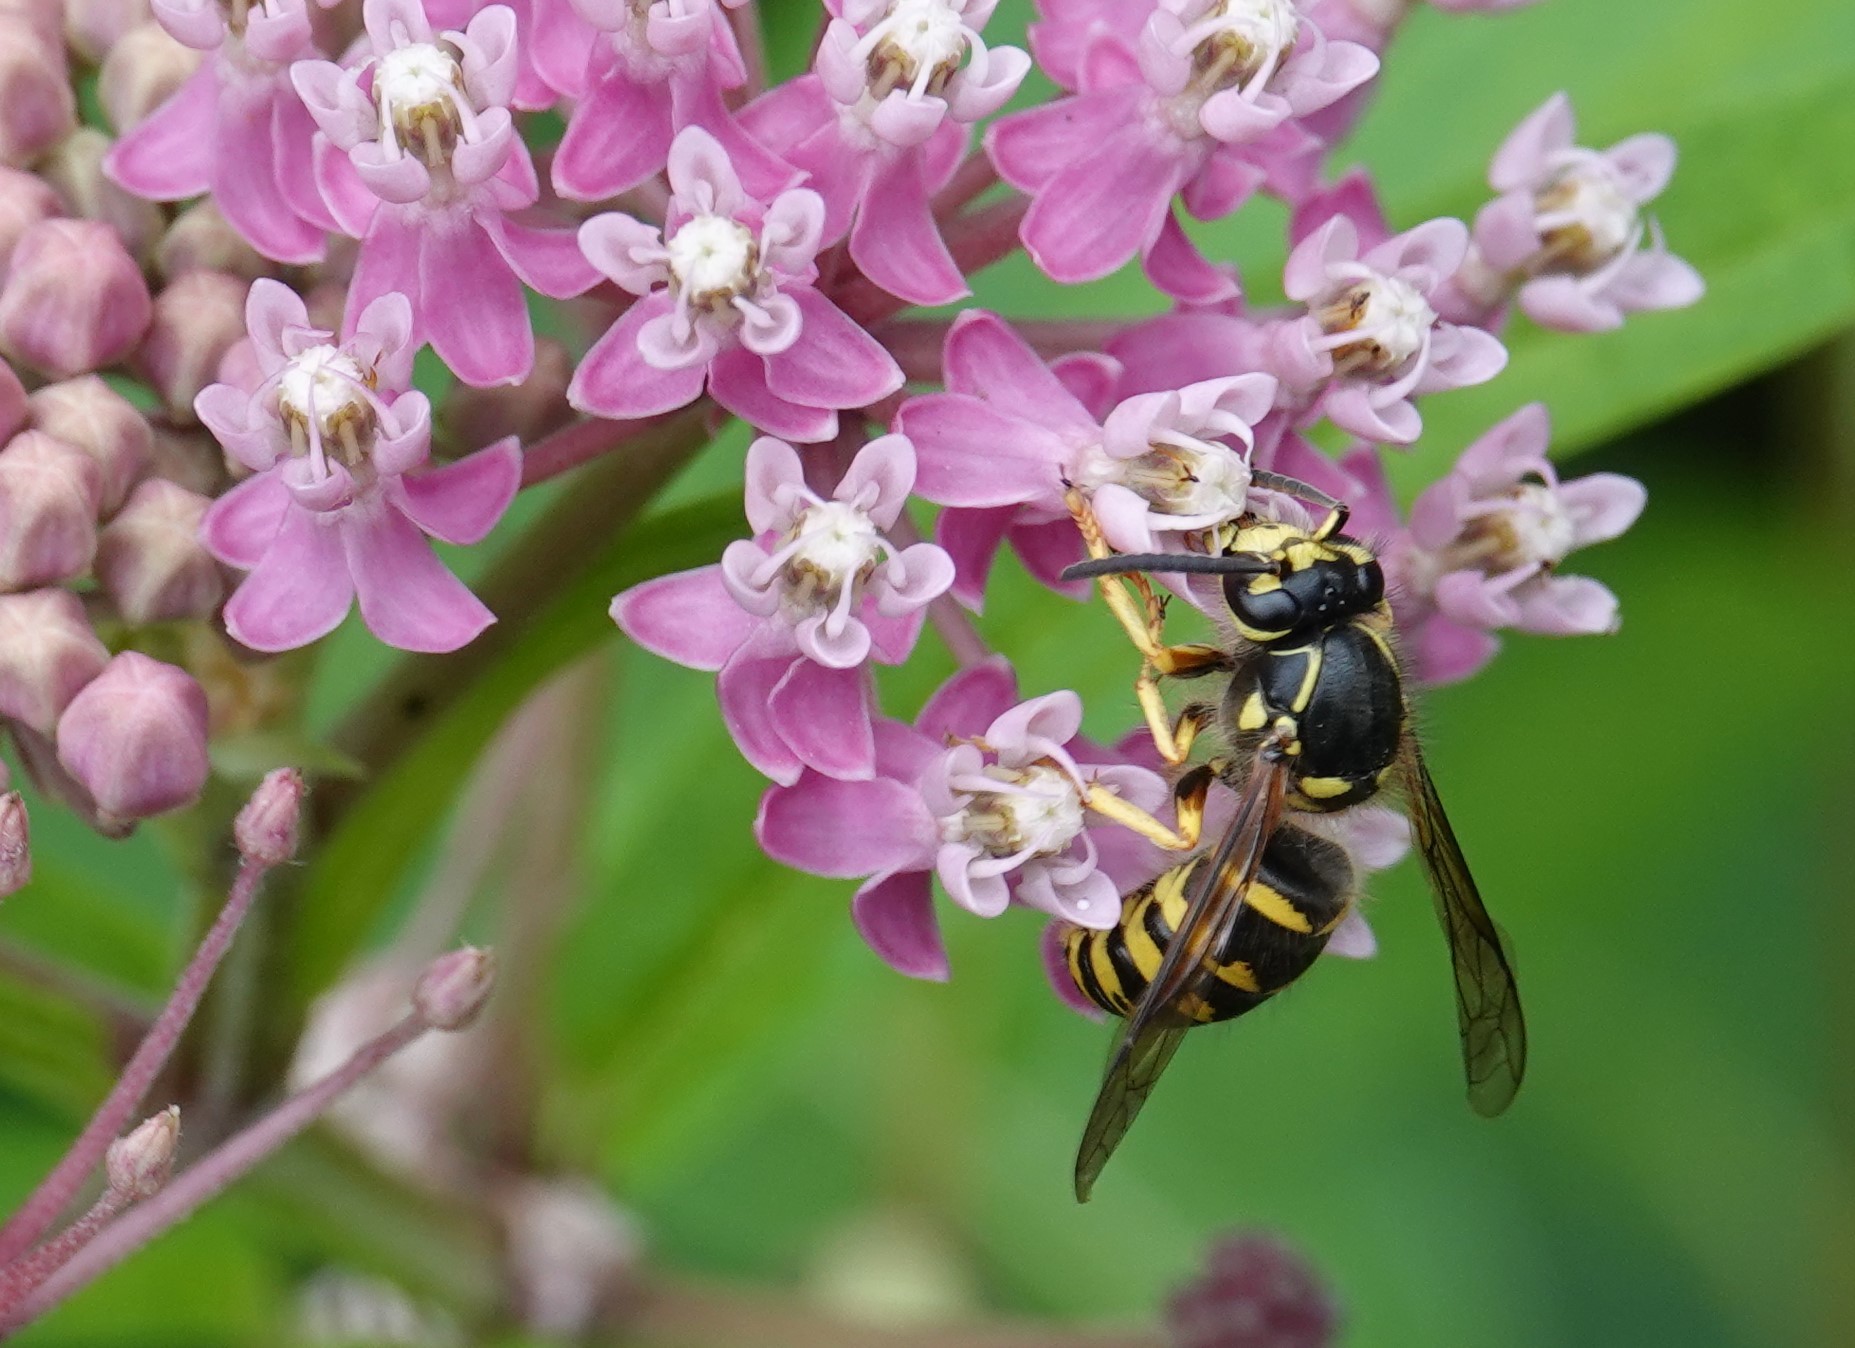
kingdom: Animalia
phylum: Arthropoda
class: Insecta
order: Hymenoptera
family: Vespidae
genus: Dolichovespula
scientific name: Dolichovespula arenaria
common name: Aerial yellowjacket
